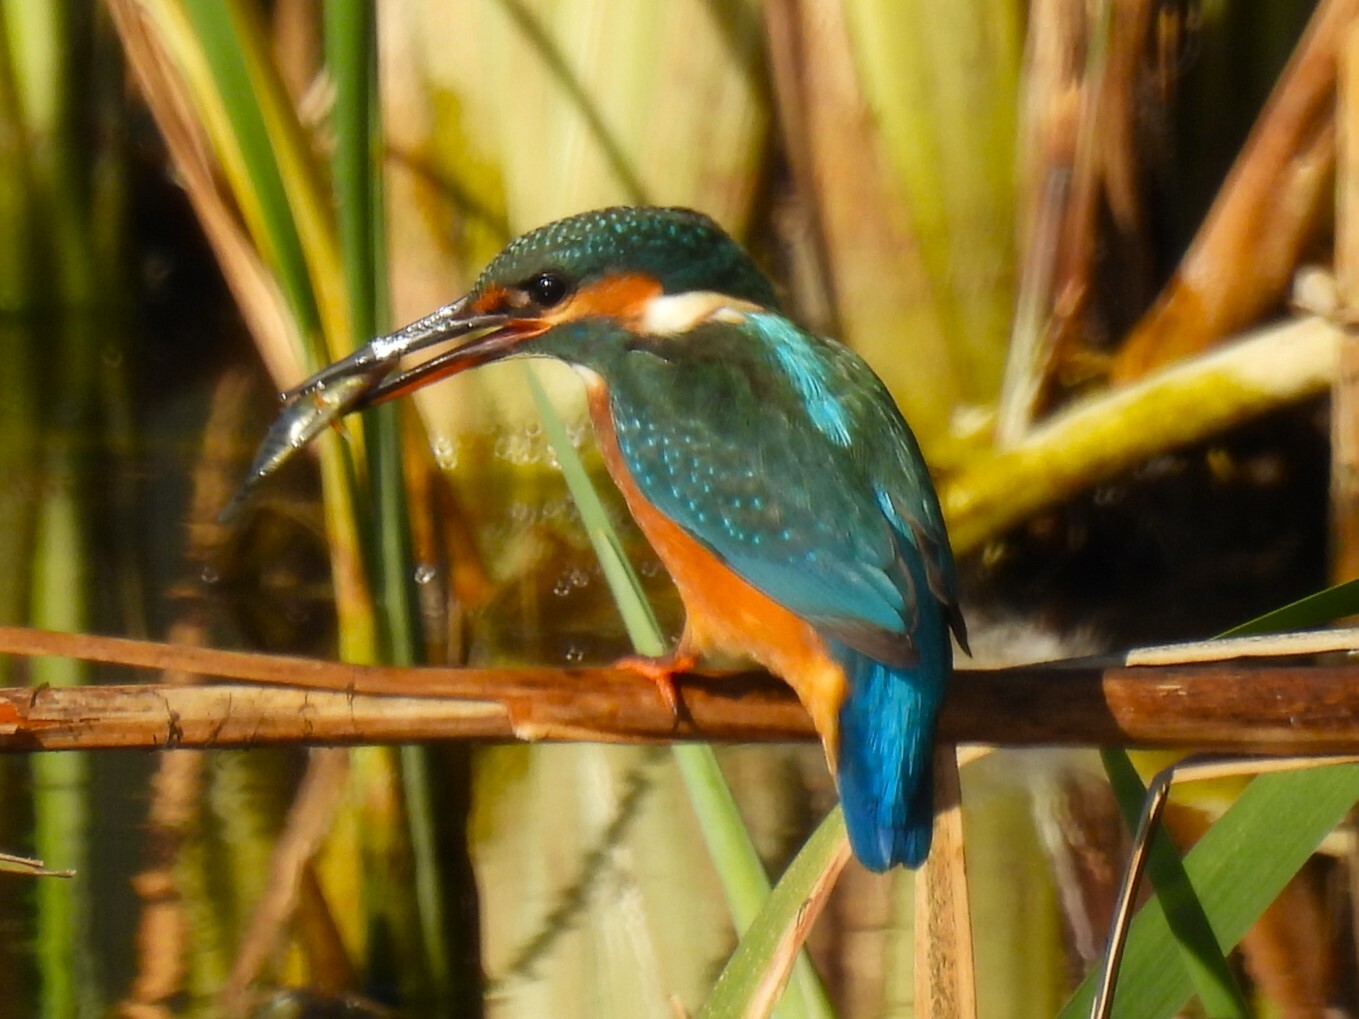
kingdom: Animalia
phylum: Chordata
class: Aves
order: Coraciiformes
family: Alcedinidae
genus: Alcedo
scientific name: Alcedo atthis
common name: Common kingfisher
